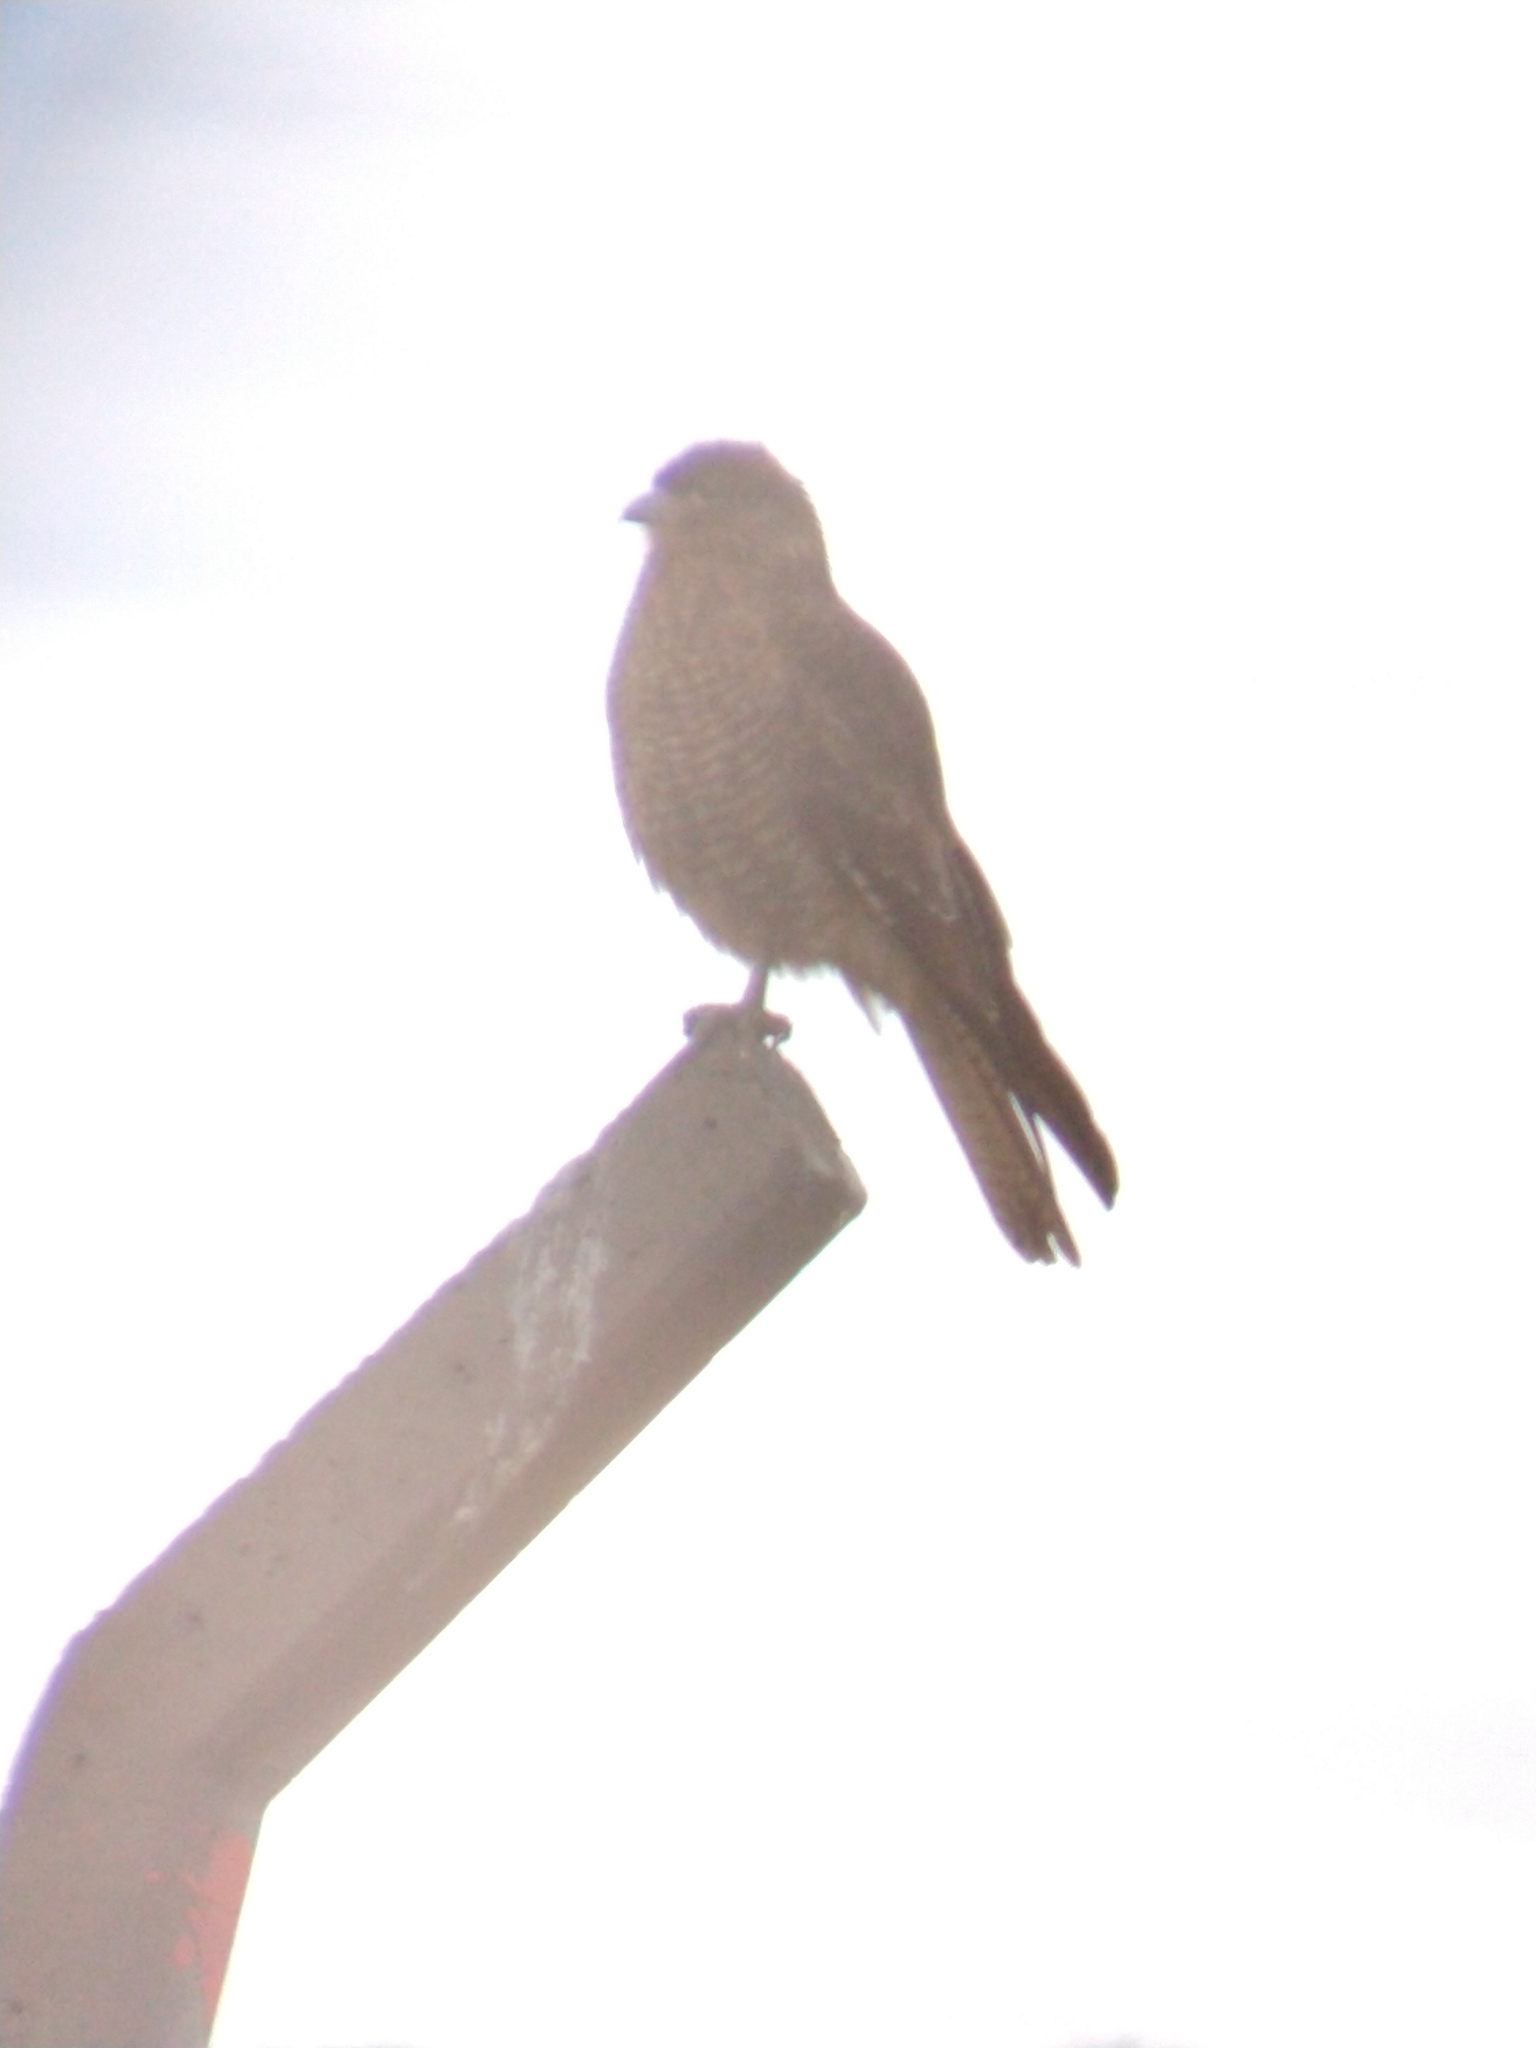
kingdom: Animalia
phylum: Chordata
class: Aves
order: Falconiformes
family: Falconidae
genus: Daptrius
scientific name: Daptrius
